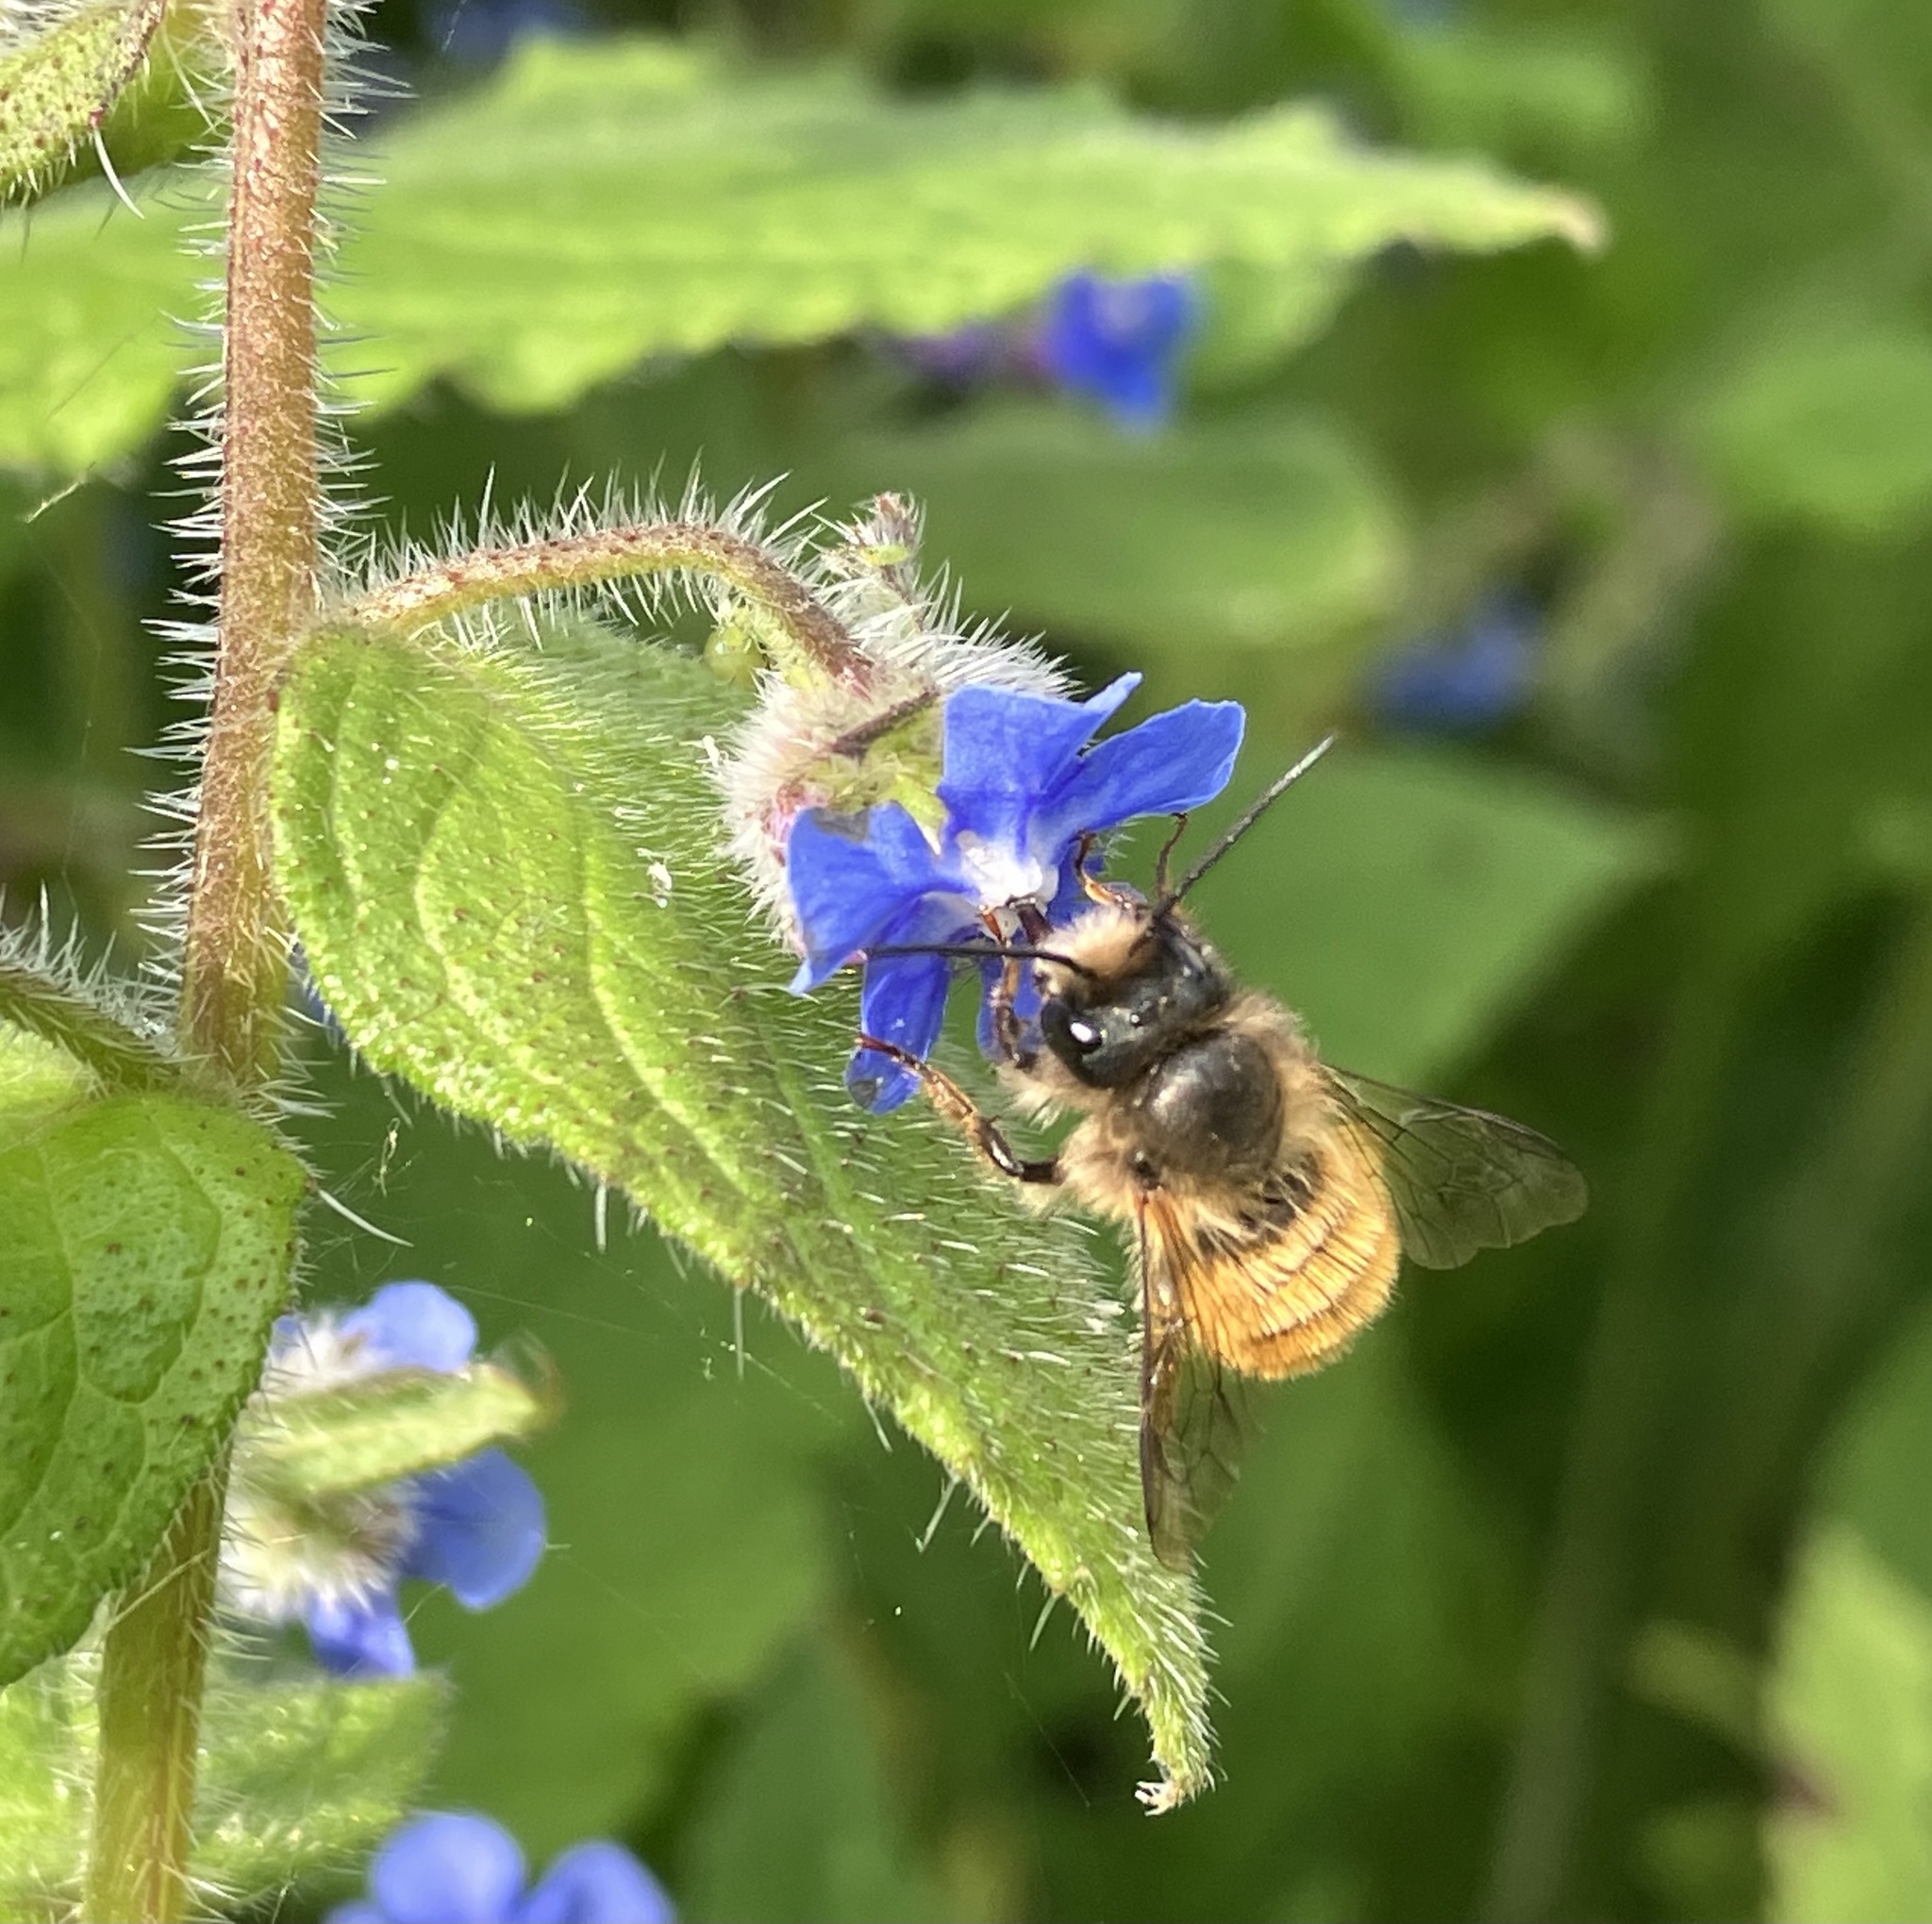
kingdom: Animalia
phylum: Arthropoda
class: Insecta
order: Hymenoptera
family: Megachilidae
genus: Osmia
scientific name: Osmia bicornis
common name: Red mason bee
